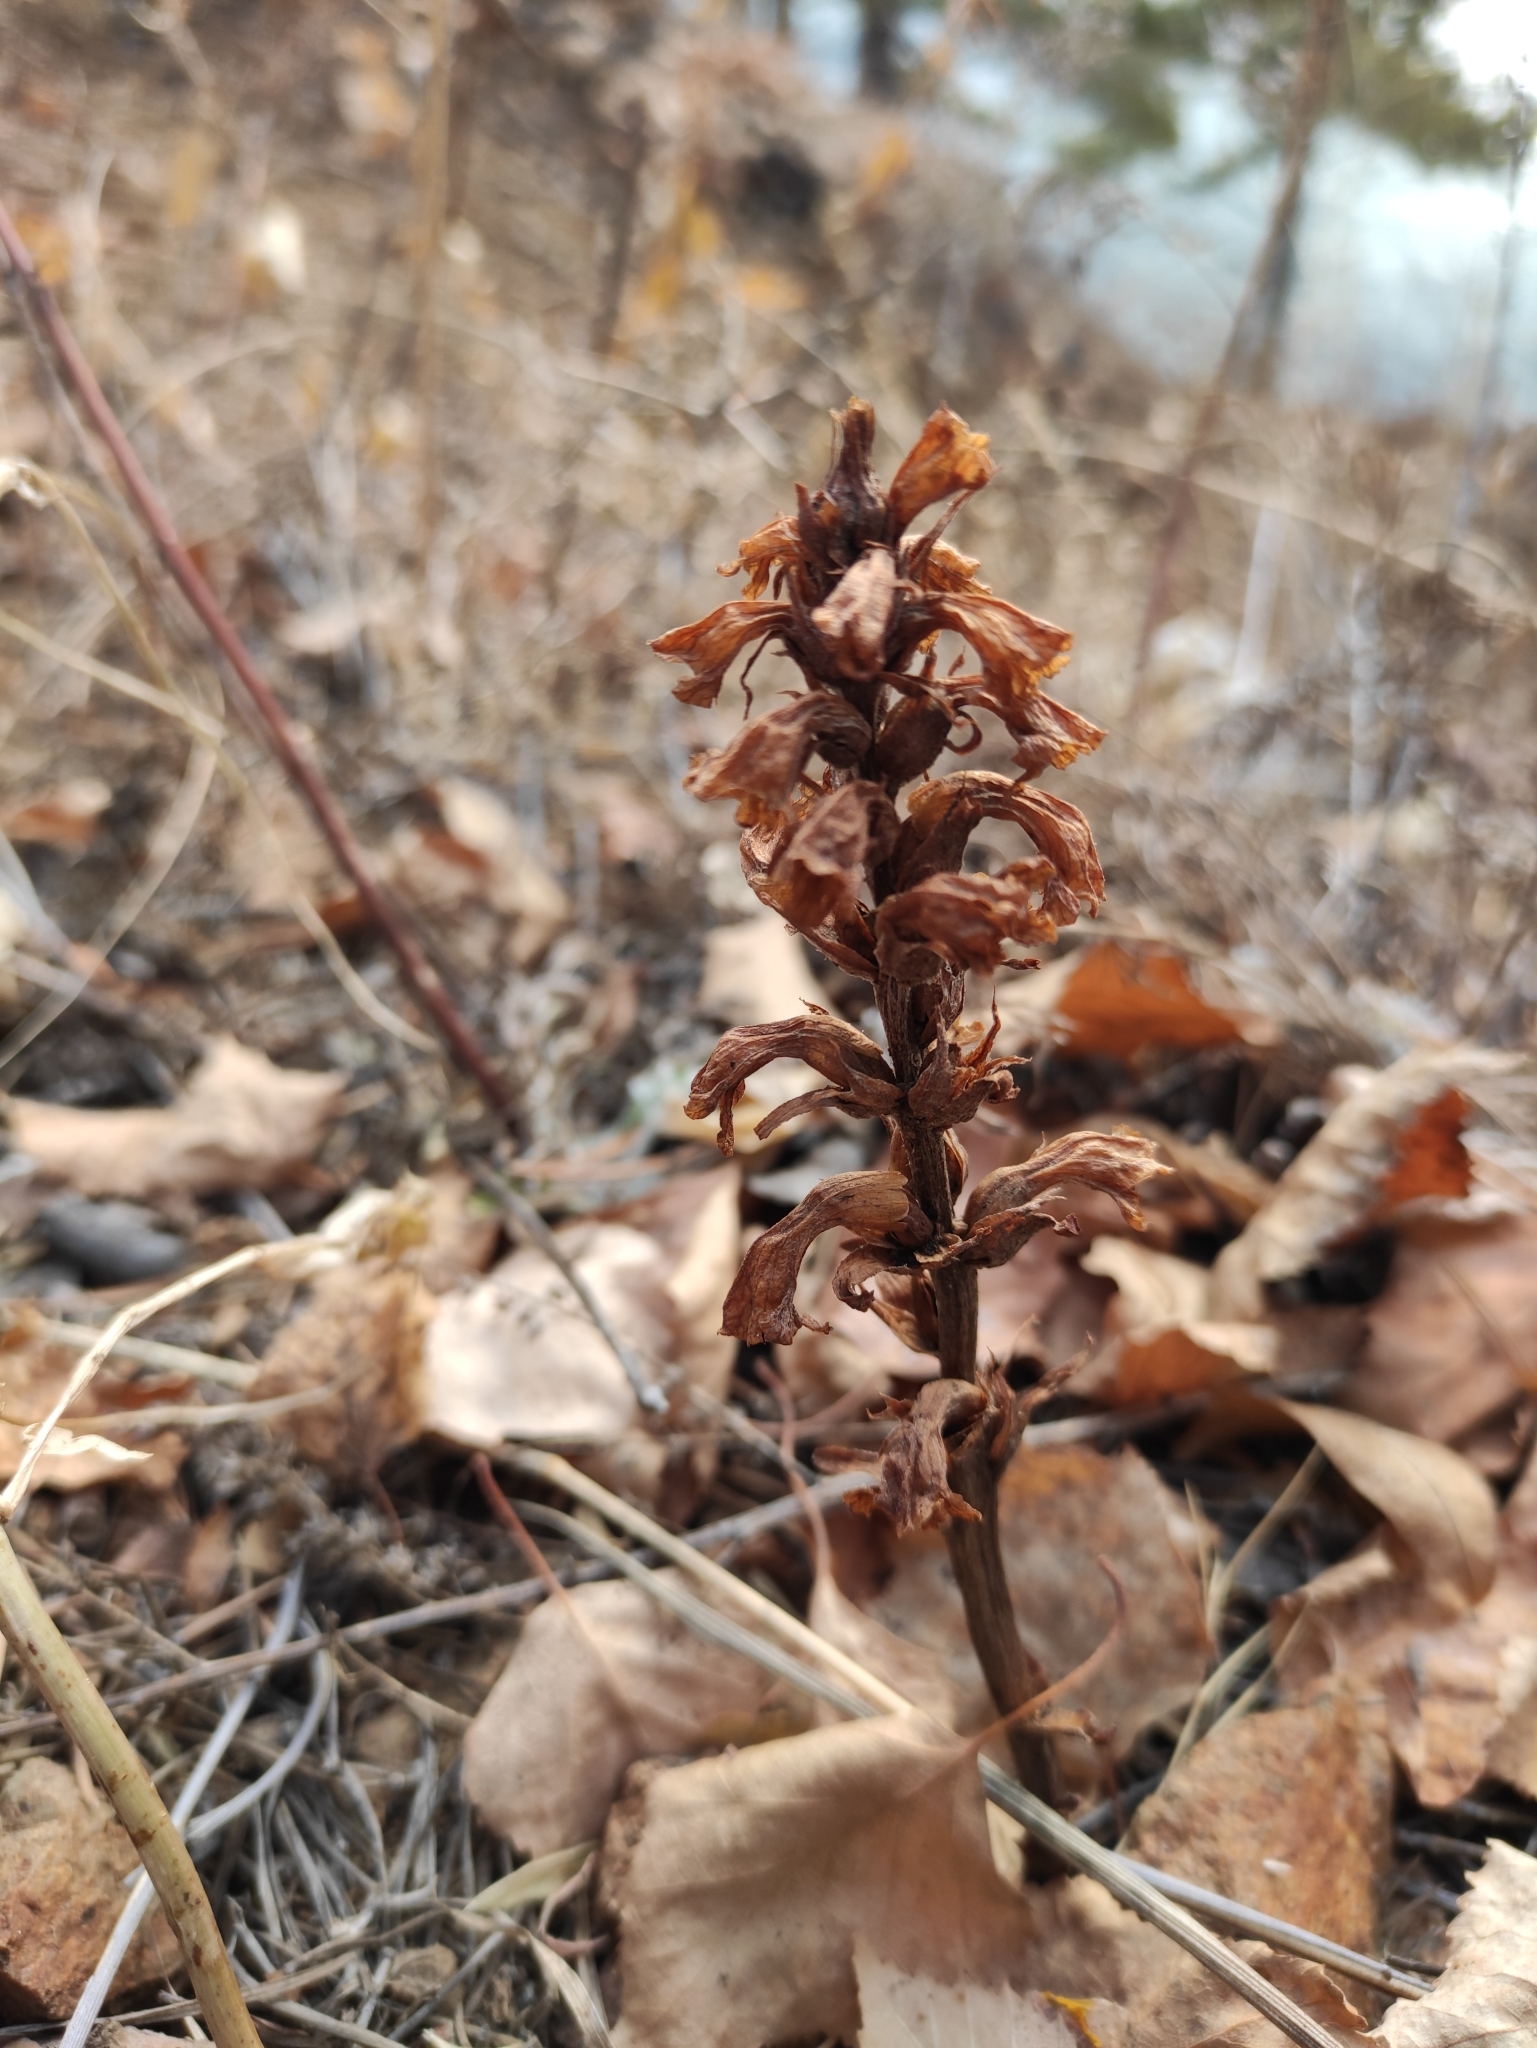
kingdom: Plantae
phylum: Tracheophyta
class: Magnoliopsida
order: Lamiales
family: Orobanchaceae
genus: Orobanche
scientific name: Orobanche coerulescens
